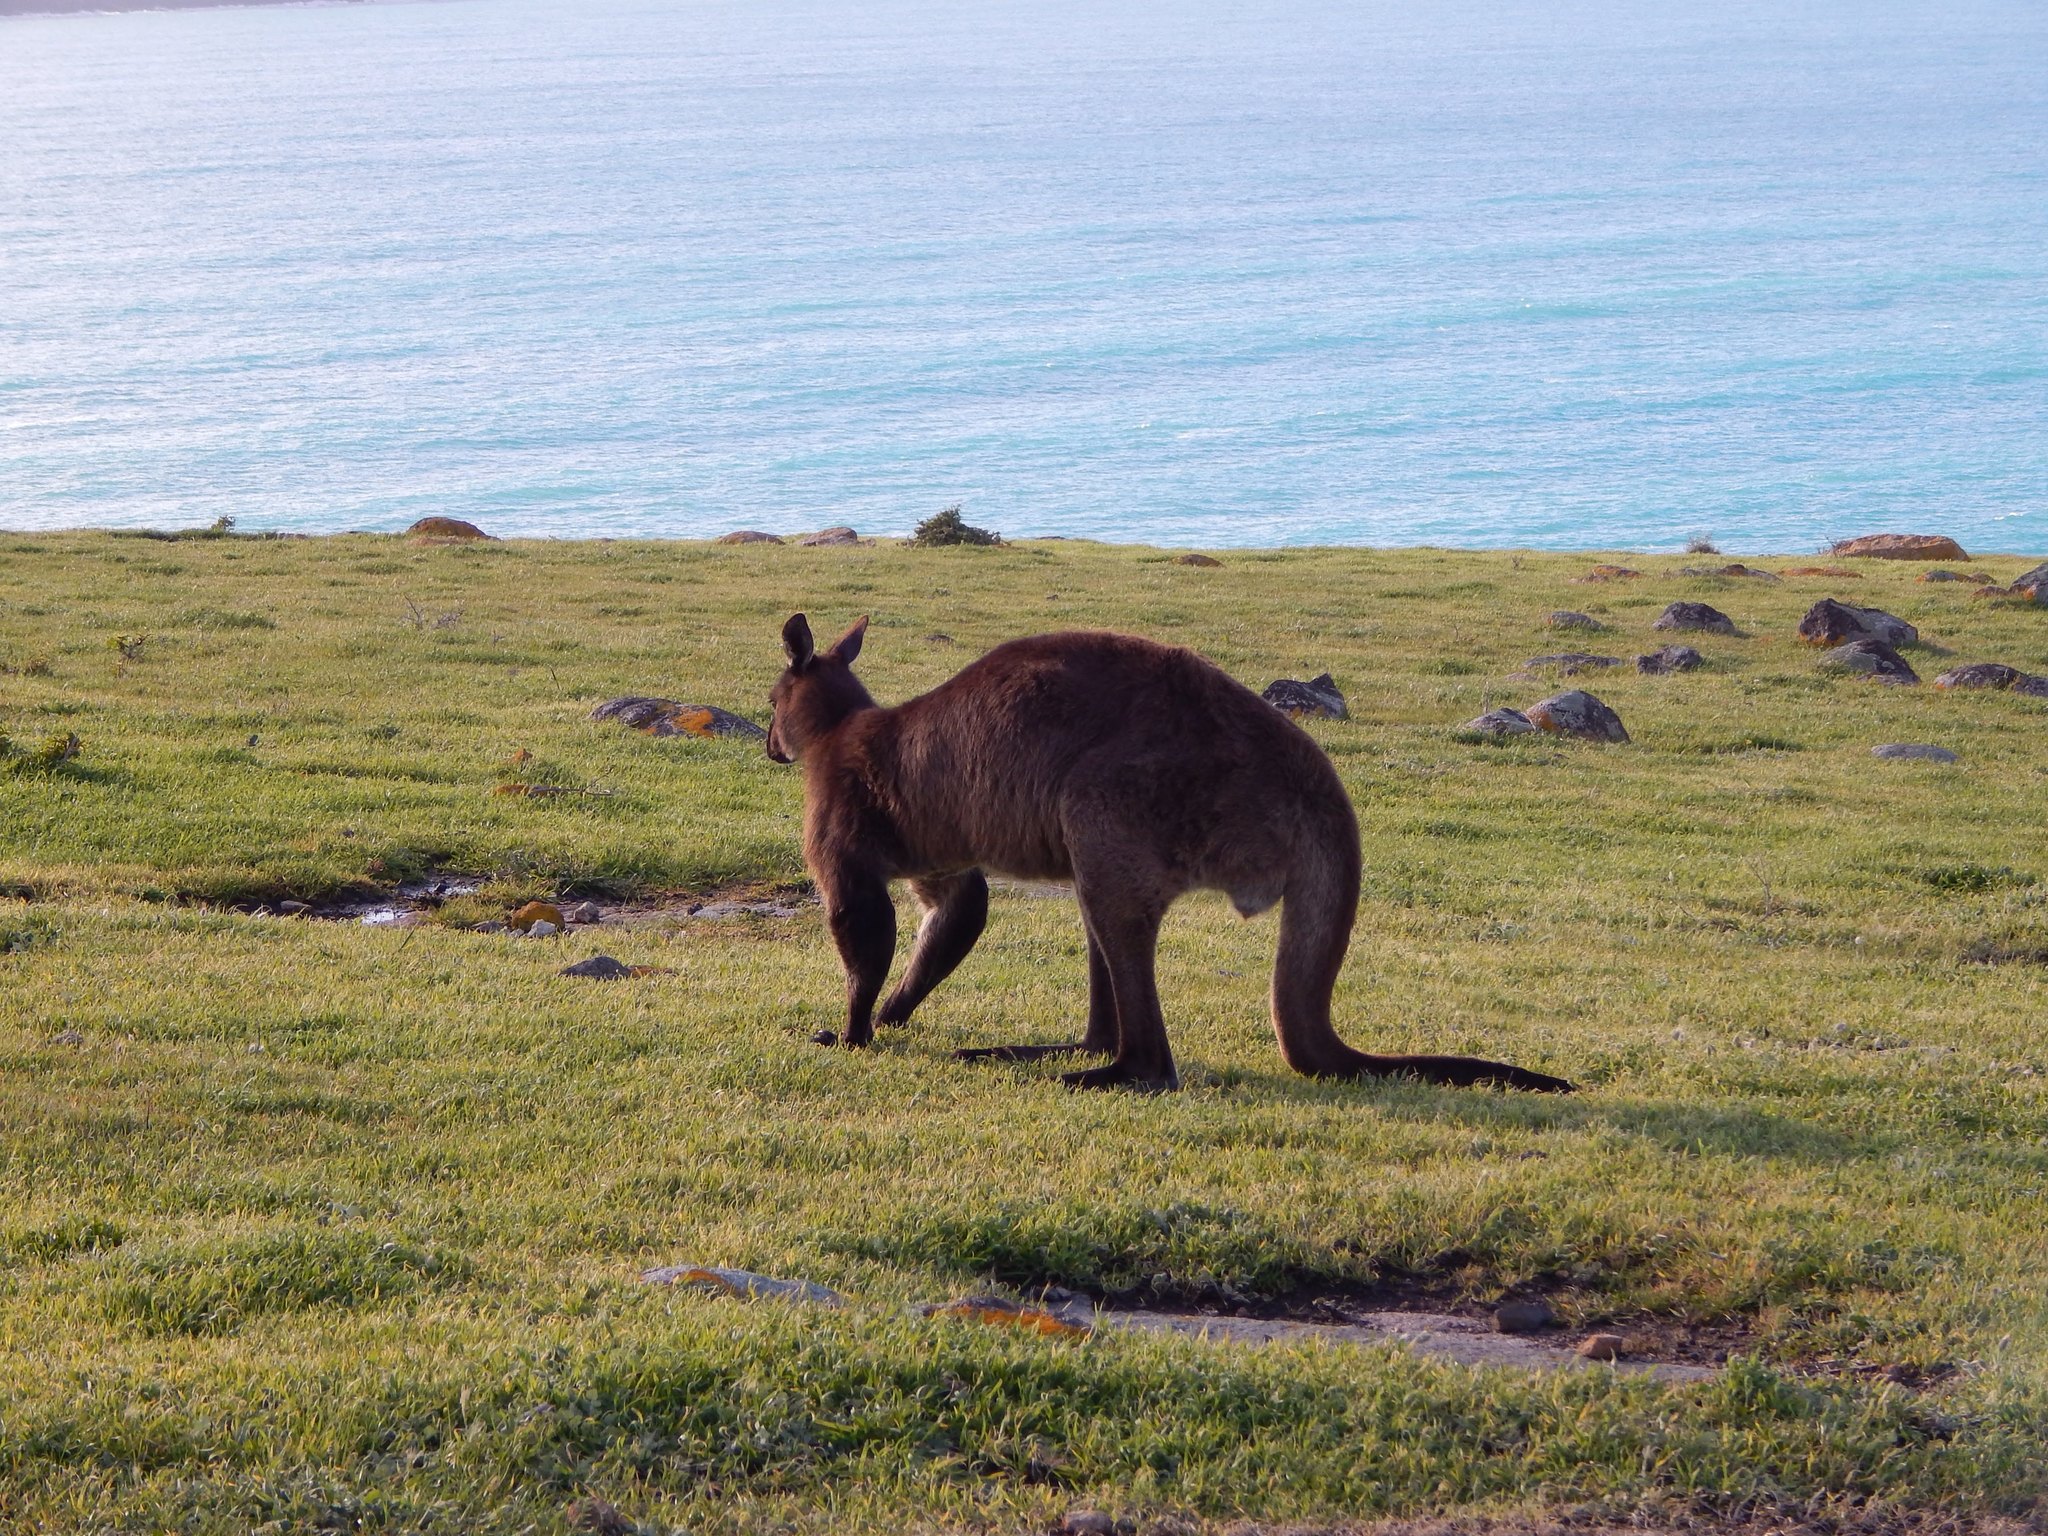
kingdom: Animalia
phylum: Chordata
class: Mammalia
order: Diprotodontia
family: Macropodidae
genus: Macropus
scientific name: Macropus fuliginosus
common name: Western grey kangaroo
